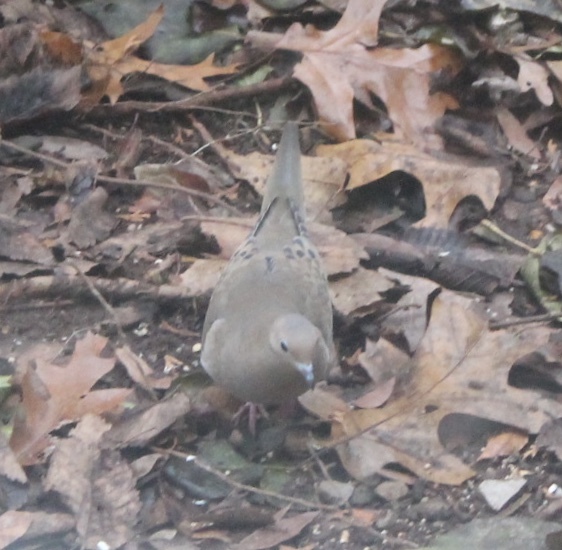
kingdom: Animalia
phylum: Chordata
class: Aves
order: Columbiformes
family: Columbidae
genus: Zenaida
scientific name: Zenaida macroura
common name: Mourning dove
